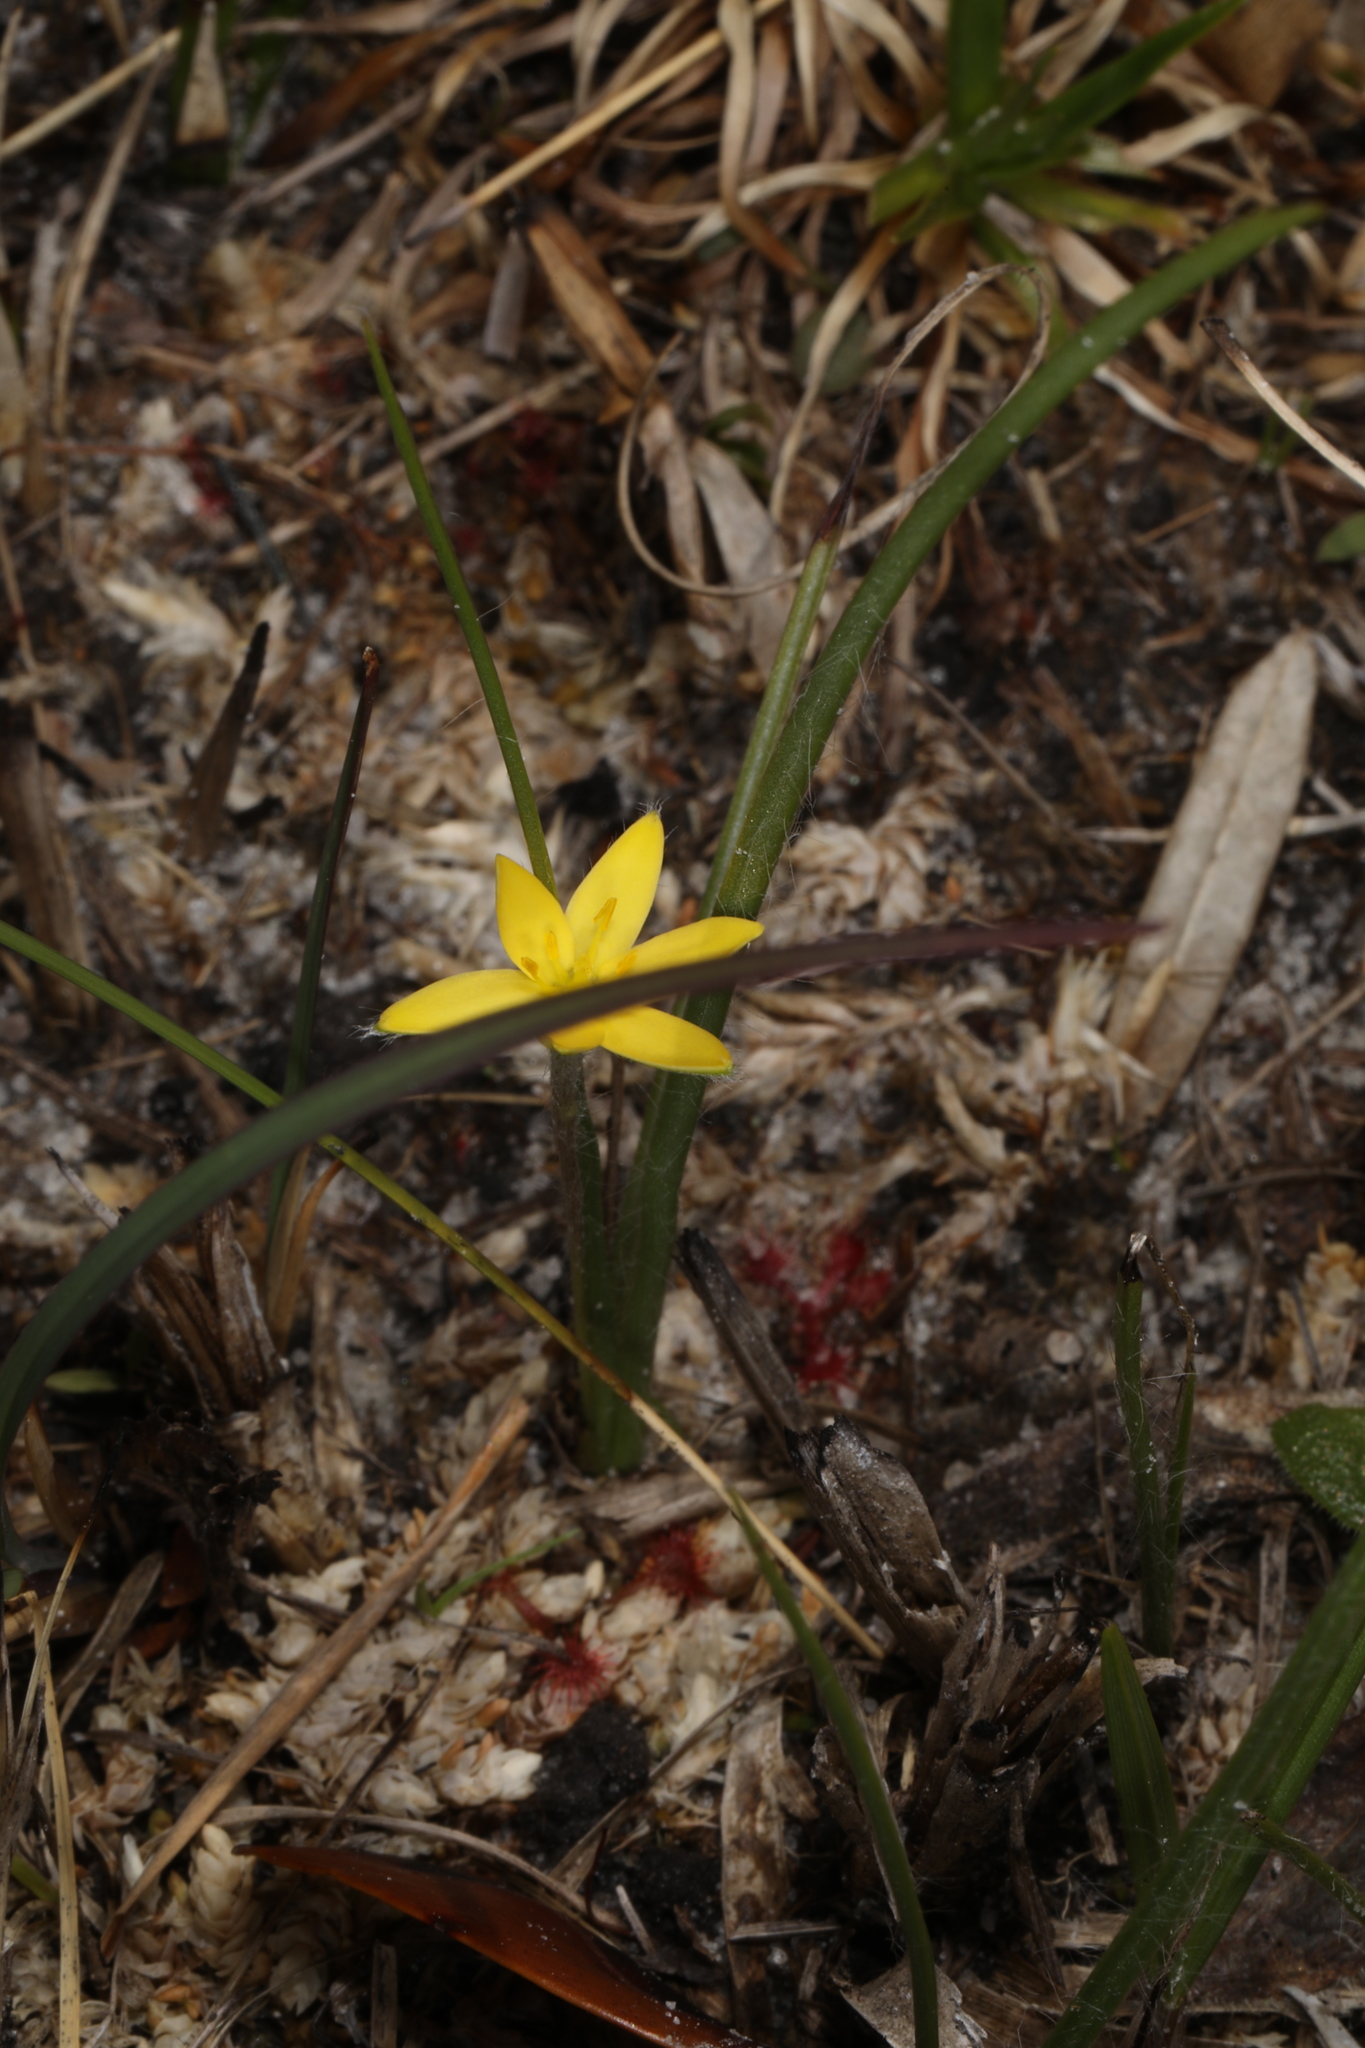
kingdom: Plantae
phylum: Tracheophyta
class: Liliopsida
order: Asparagales
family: Hypoxidaceae
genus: Hypoxis
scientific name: Hypoxis hirsuta
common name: Common goldstar
